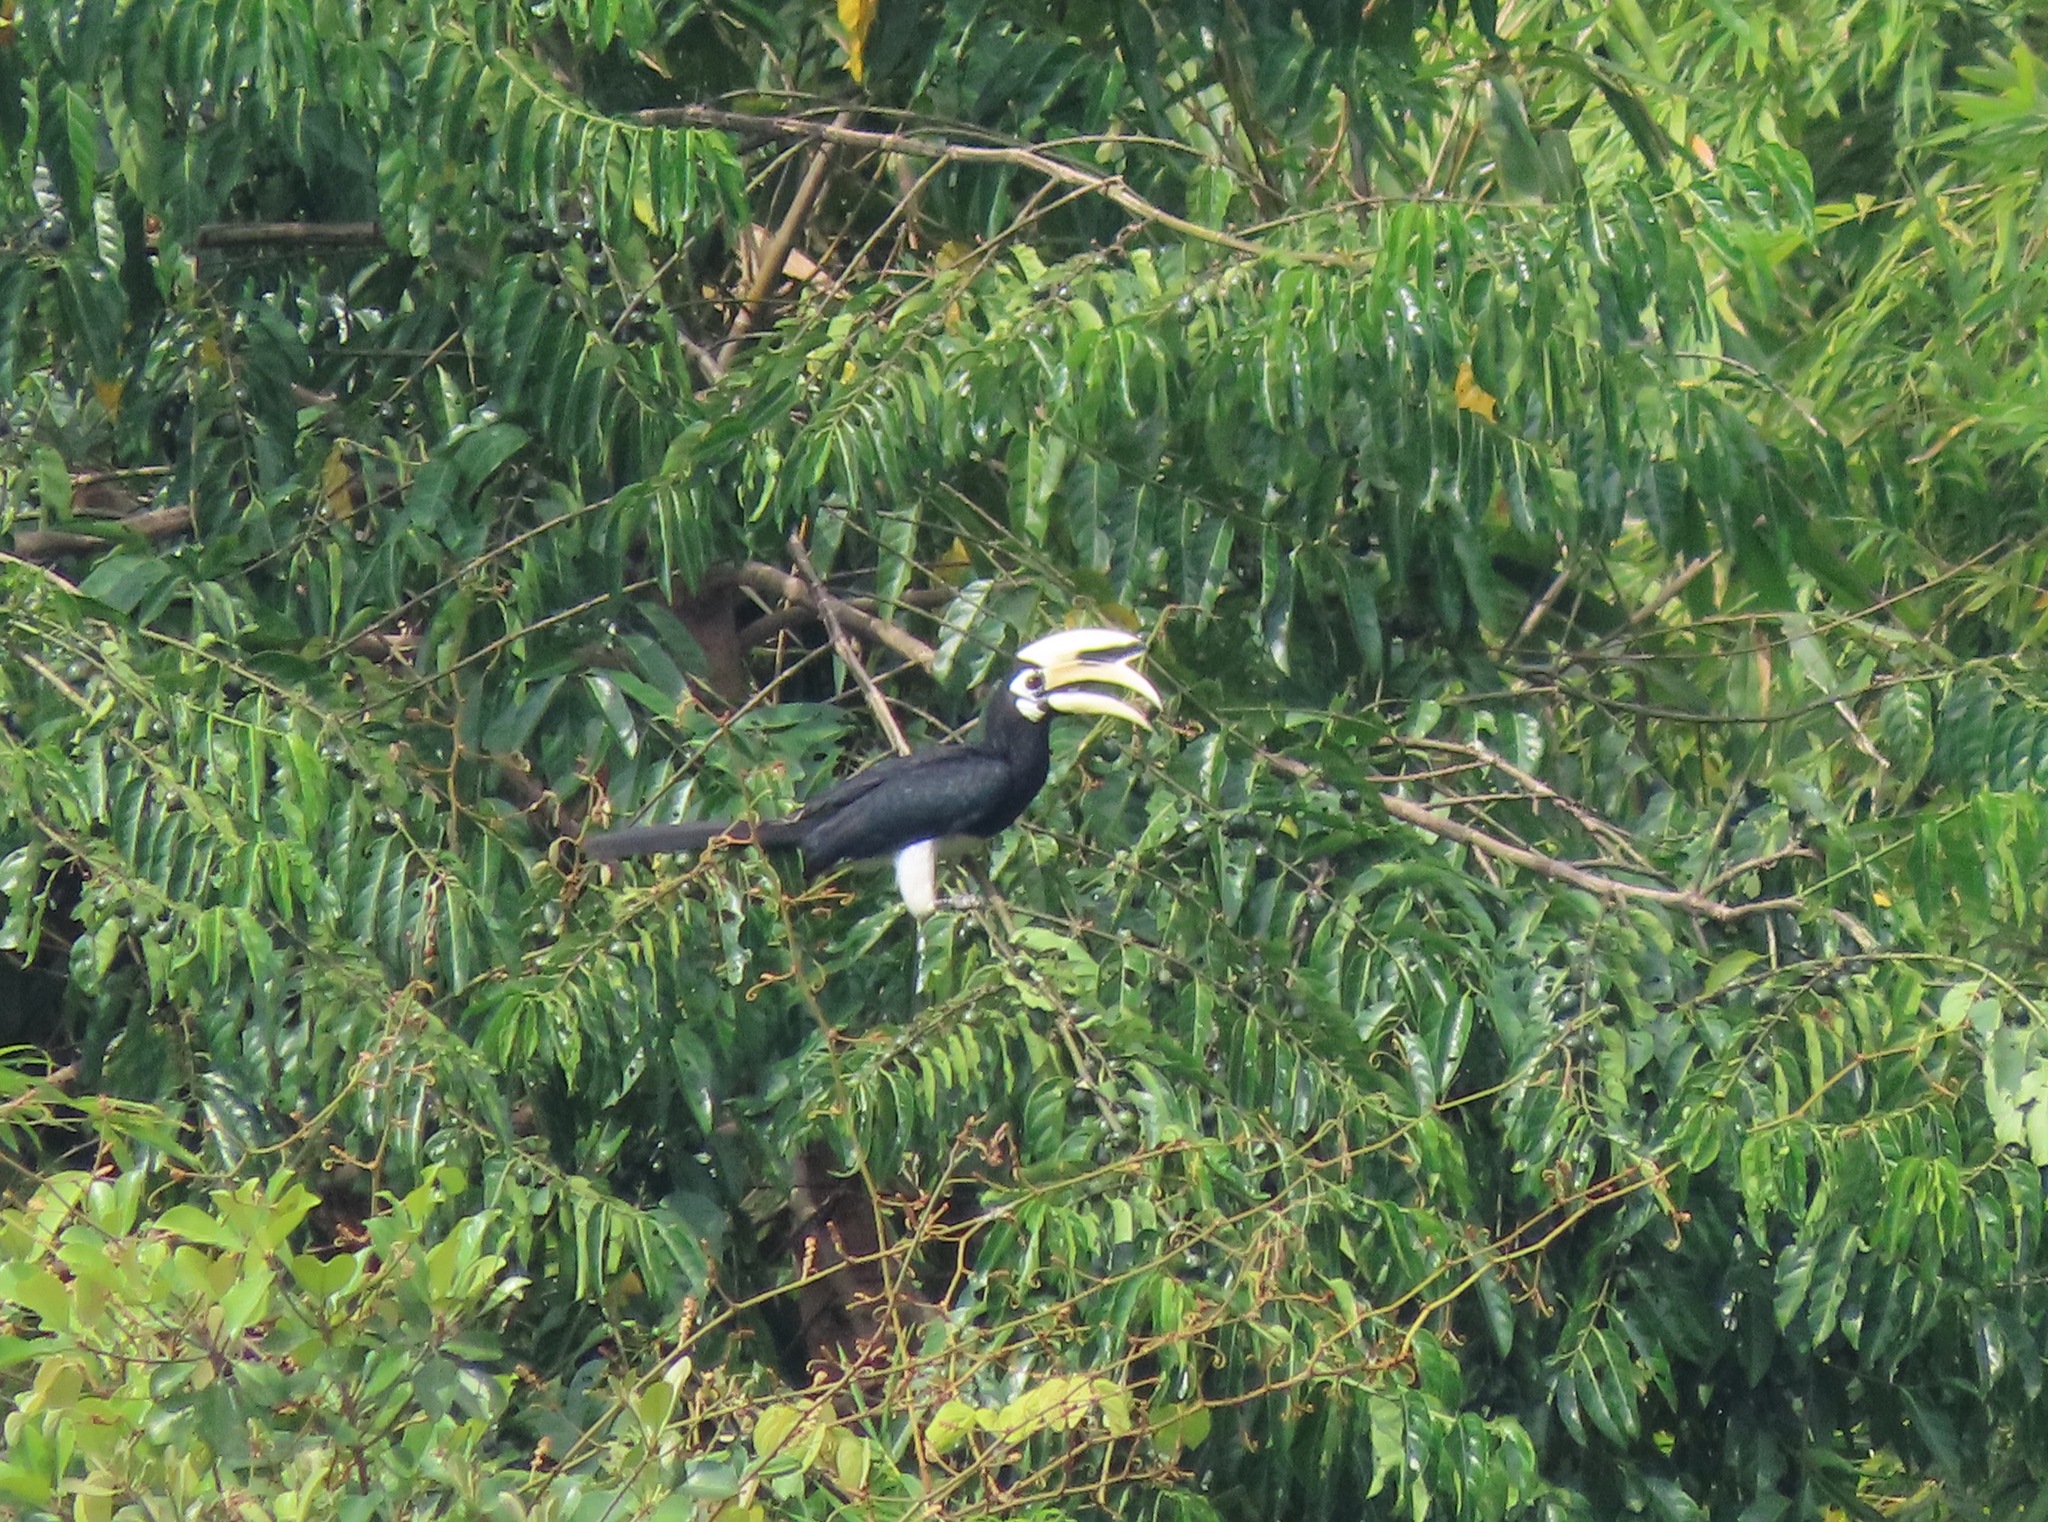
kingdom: Animalia
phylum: Chordata
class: Aves
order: Bucerotiformes
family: Bucerotidae
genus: Anthracoceros
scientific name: Anthracoceros albirostris
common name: Oriental pied-hornbill
